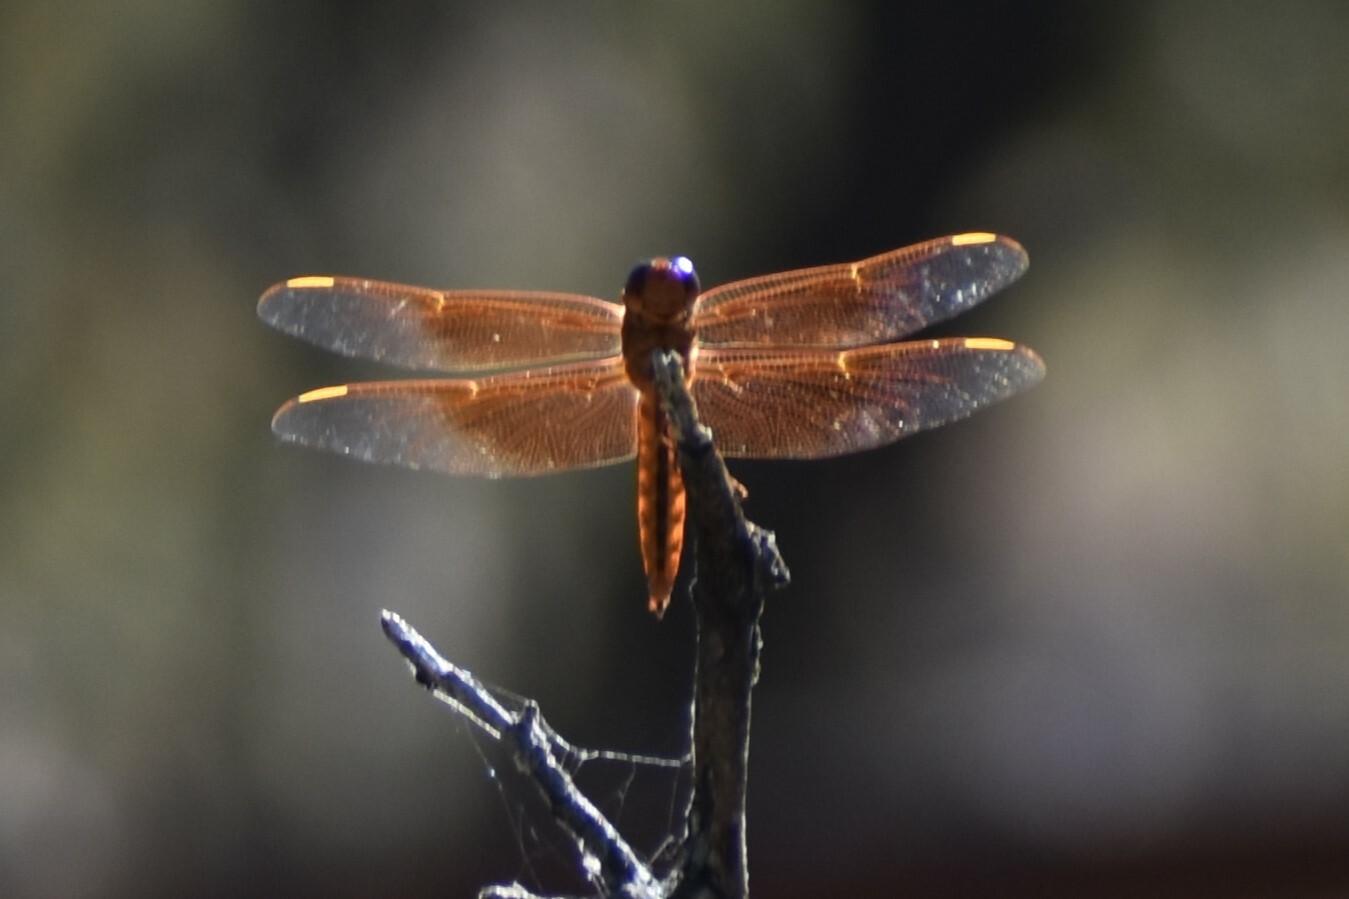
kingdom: Animalia
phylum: Arthropoda
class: Insecta
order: Odonata
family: Libellulidae
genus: Libellula
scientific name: Libellula saturata
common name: Flame skimmer
